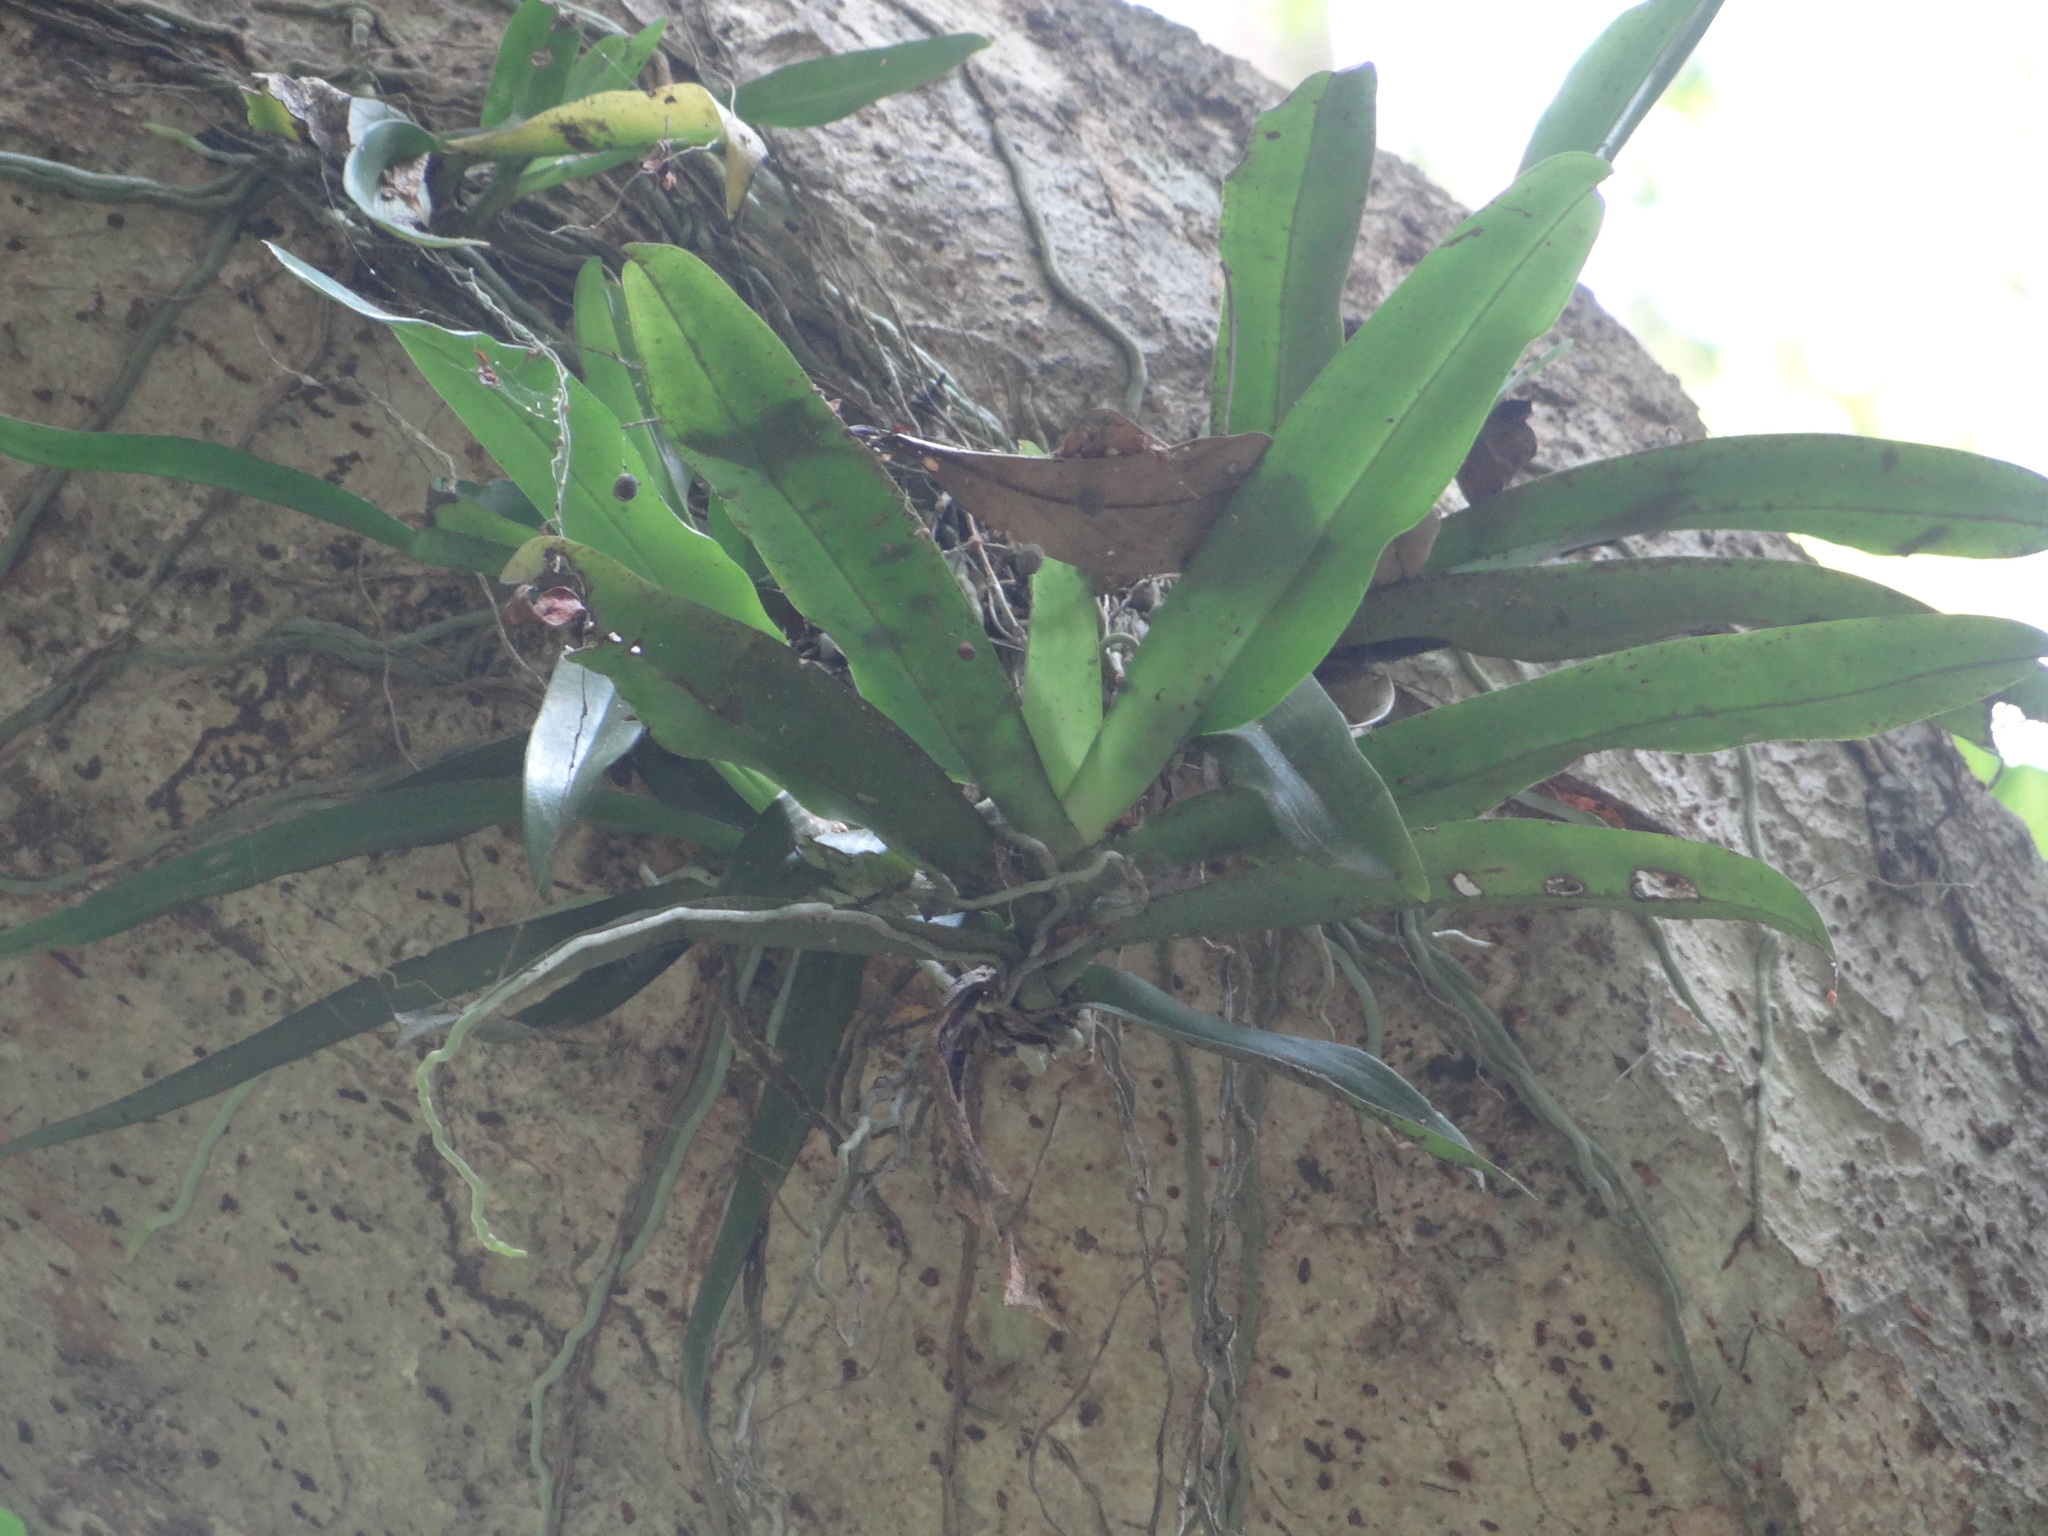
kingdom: Plantae
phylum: Tracheophyta
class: Liliopsida
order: Asparagales
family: Orchidaceae
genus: Pomatocalpa
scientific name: Pomatocalpa undulatum
